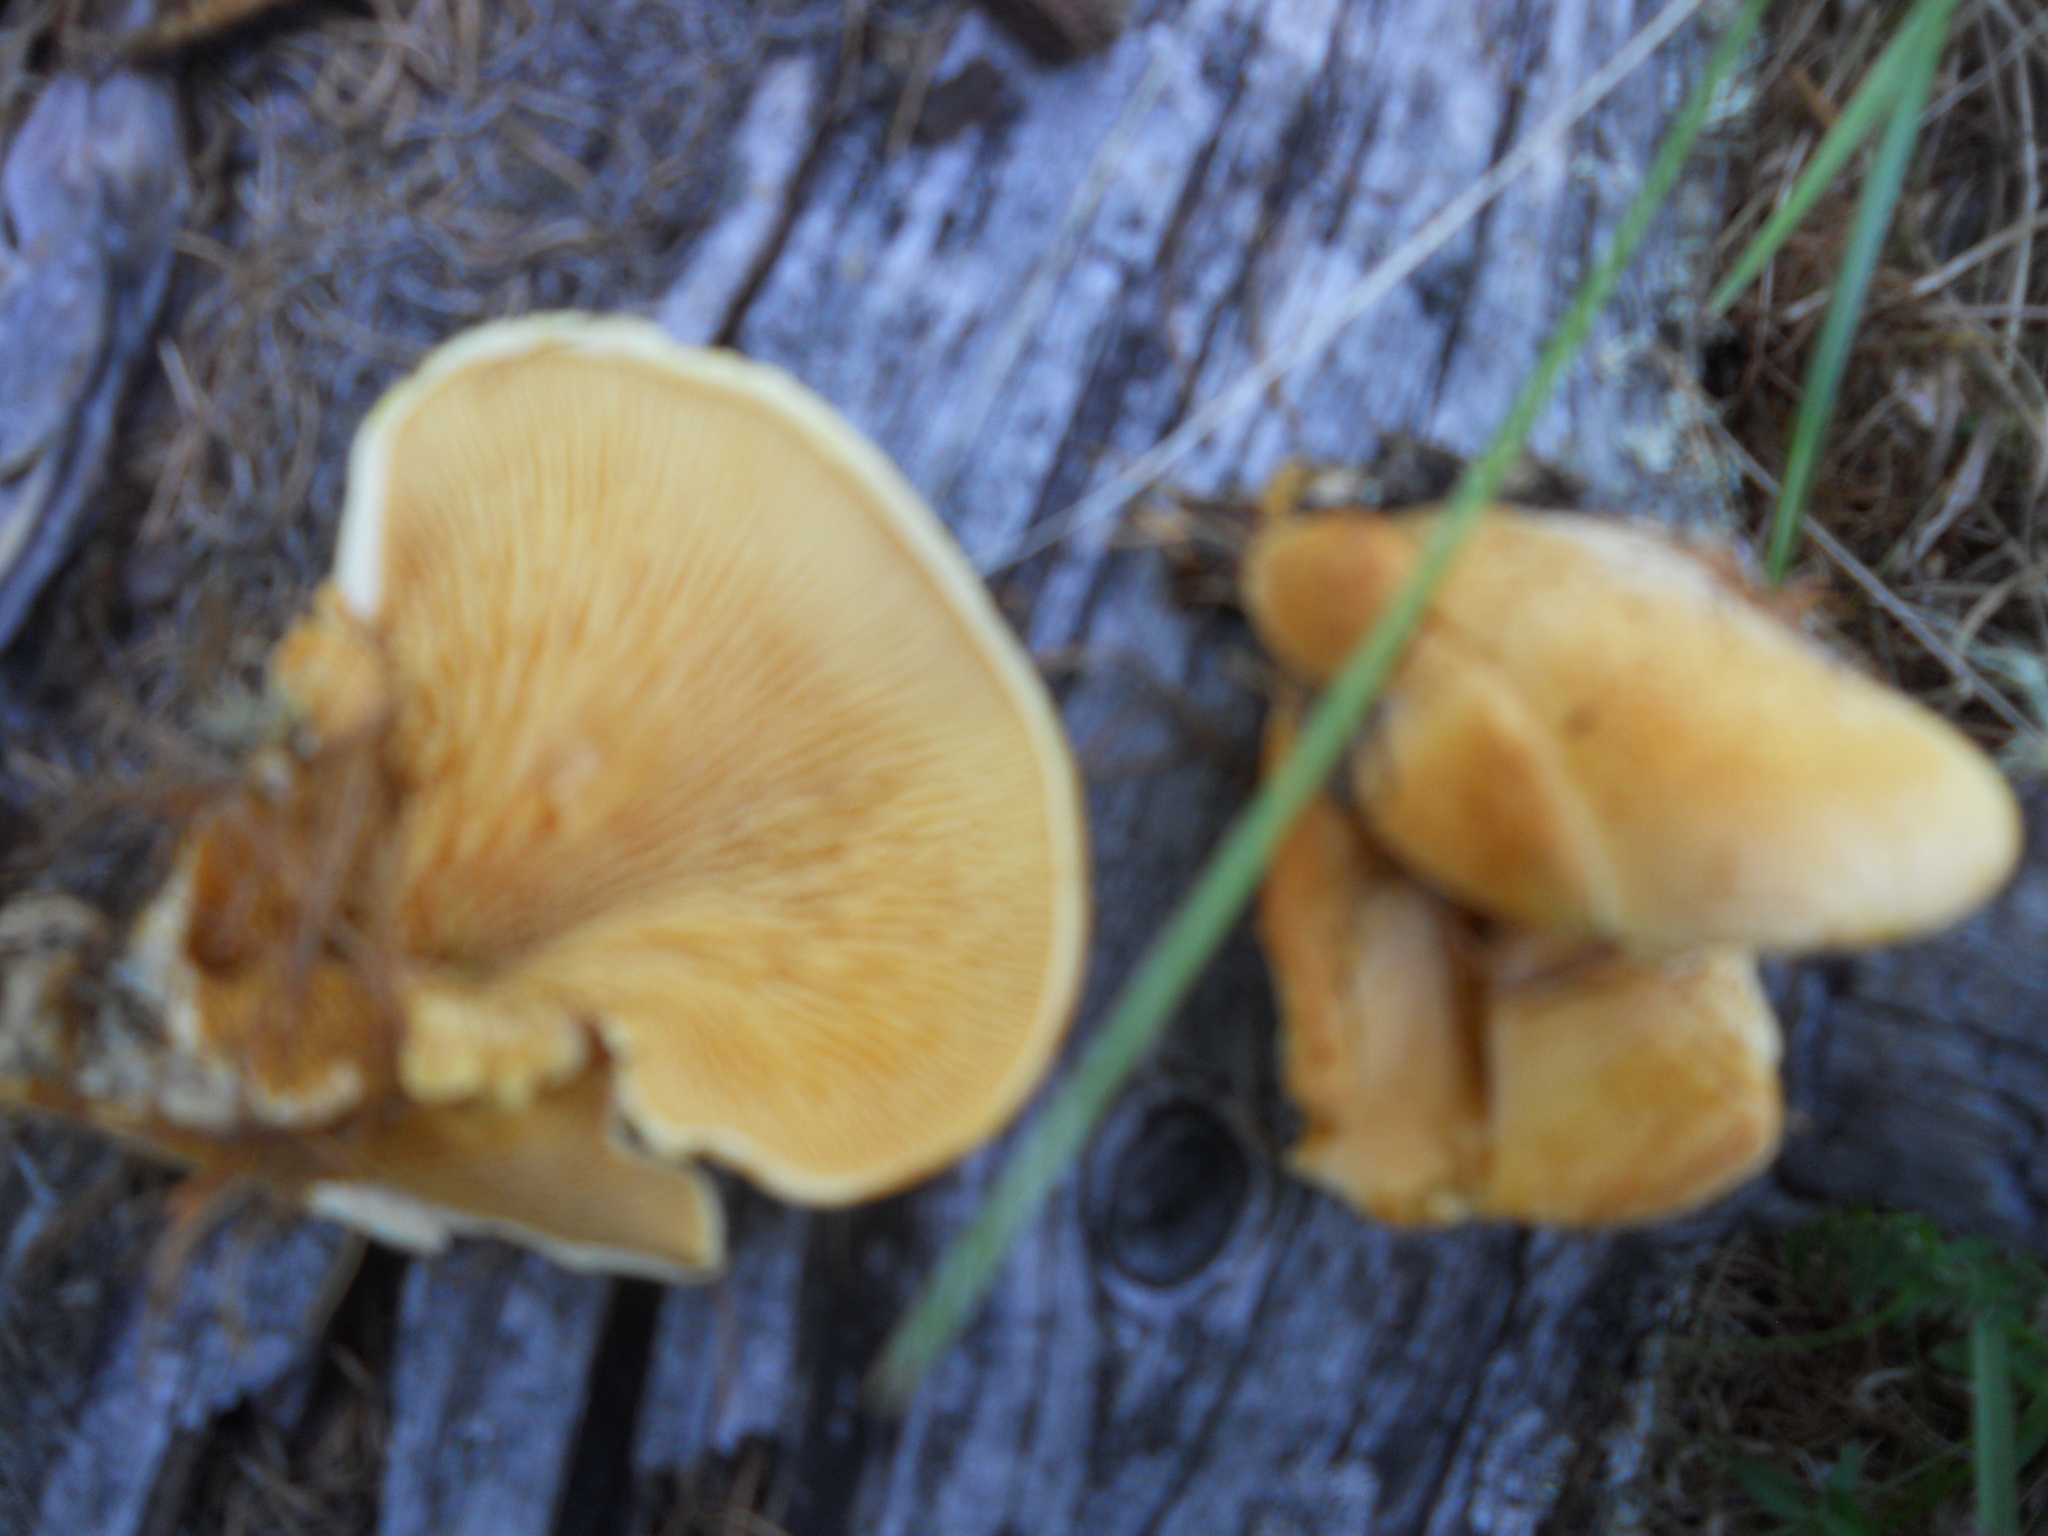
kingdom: Fungi
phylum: Basidiomycota
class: Agaricomycetes
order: Agaricales
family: Phyllotopsidaceae
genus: Phyllotopsis
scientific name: Phyllotopsis nidulans
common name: Orange mock oyster
